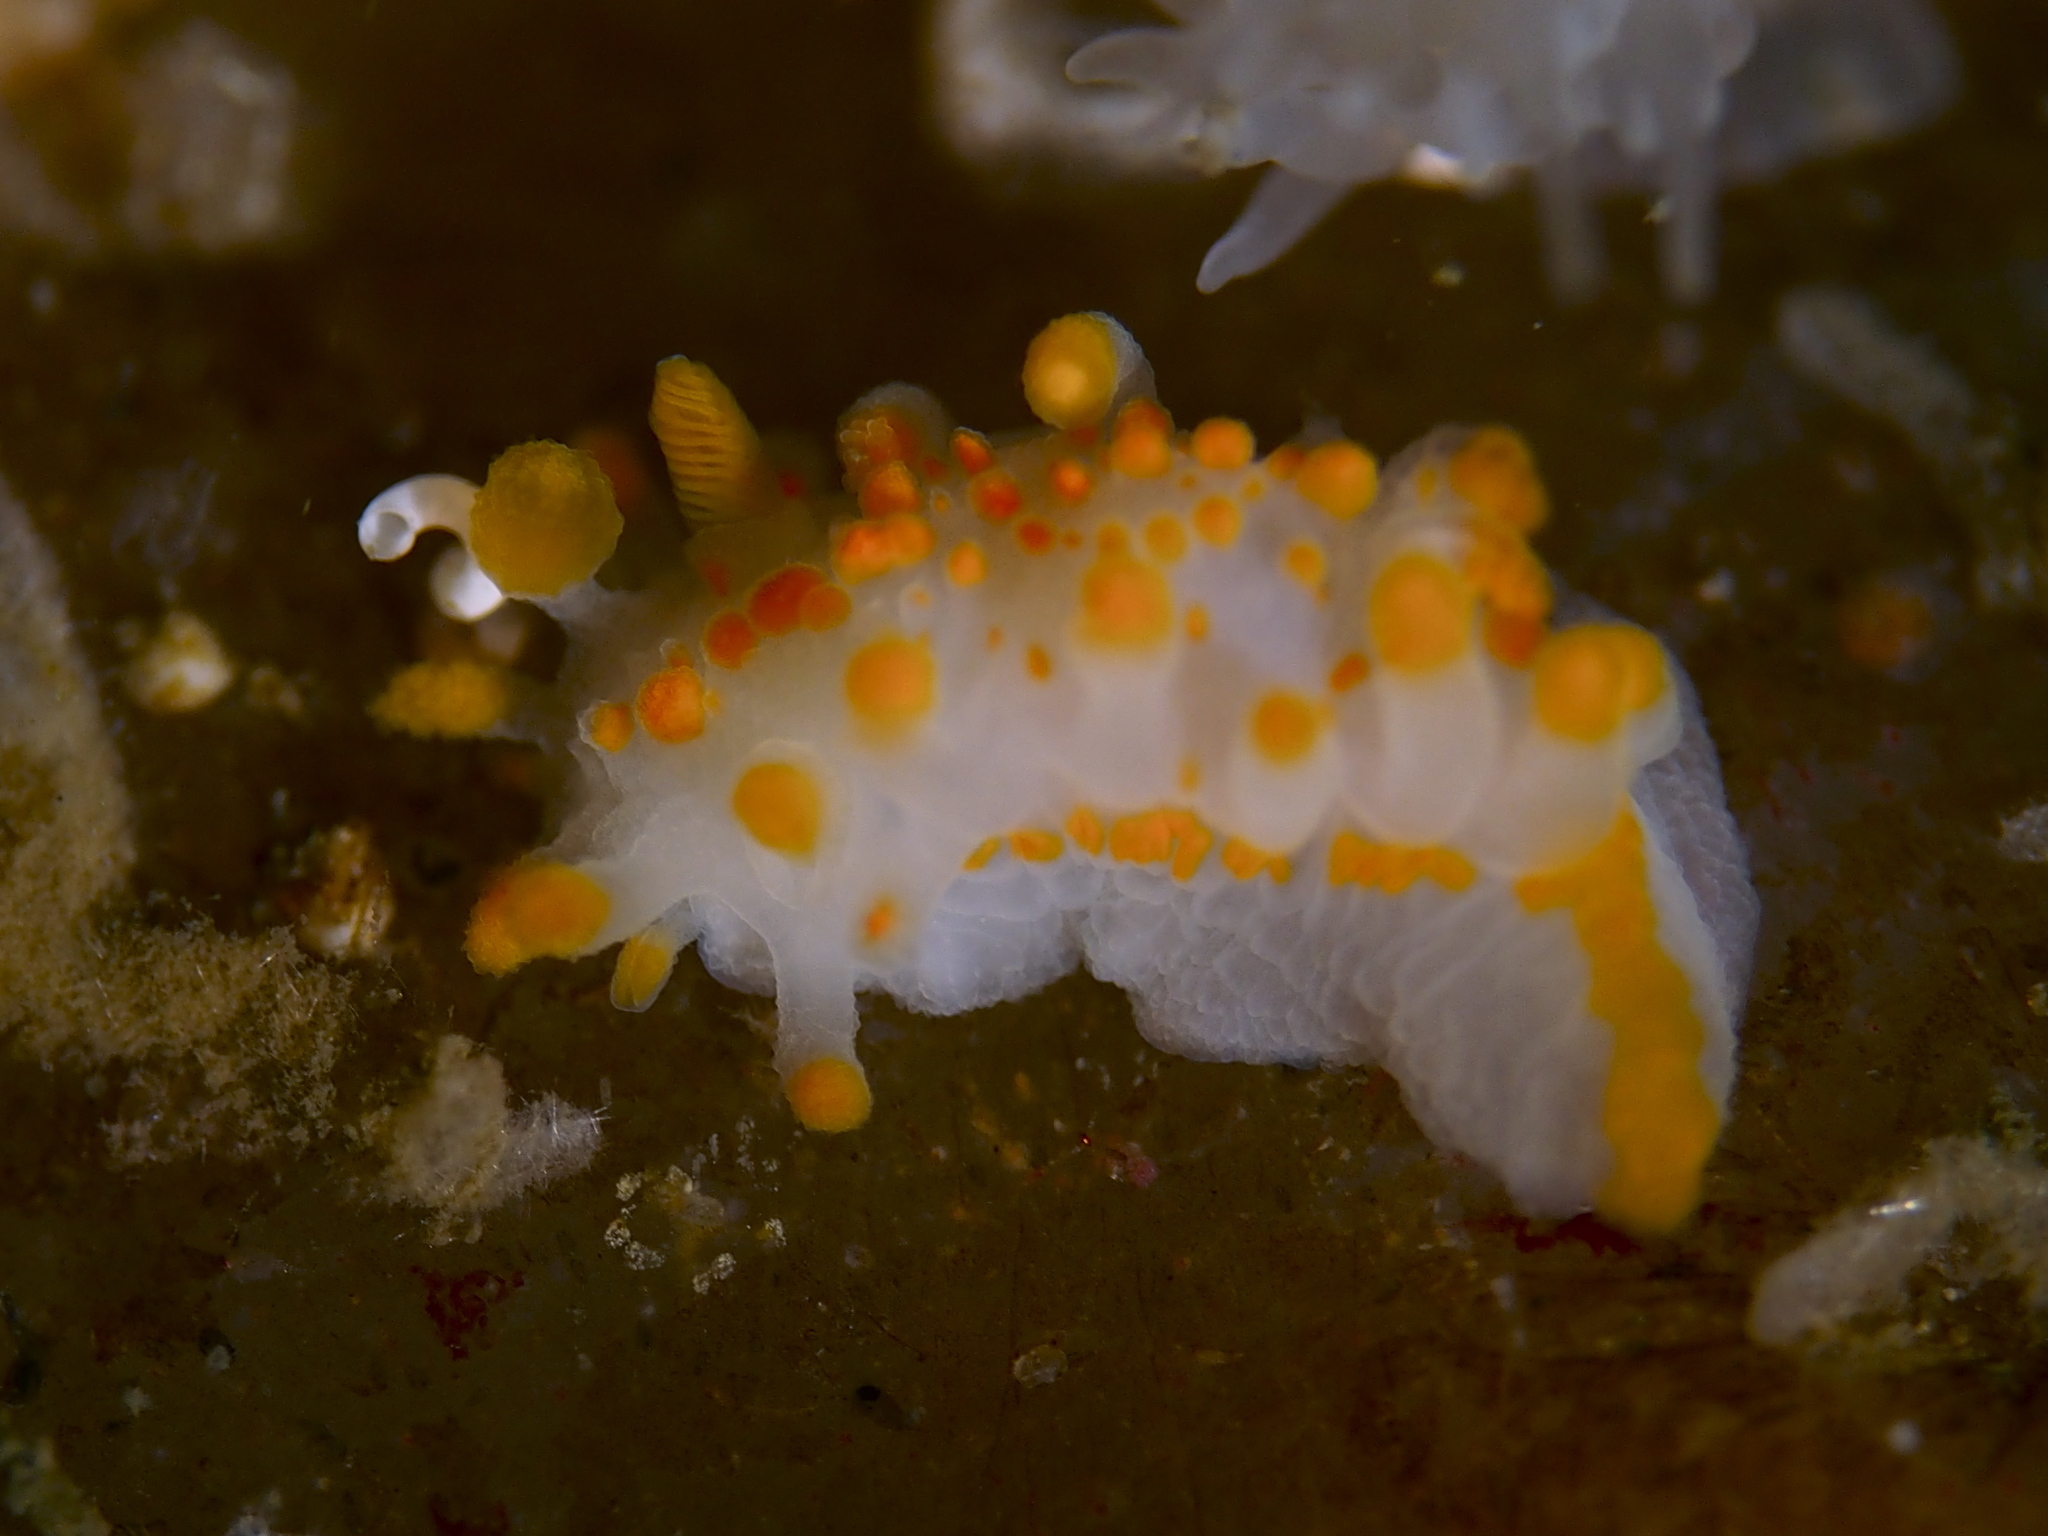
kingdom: Animalia
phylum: Mollusca
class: Gastropoda
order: Nudibranchia
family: Polyceridae
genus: Limacia
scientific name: Limacia clavigera
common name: Orange-clubbed sea slug
